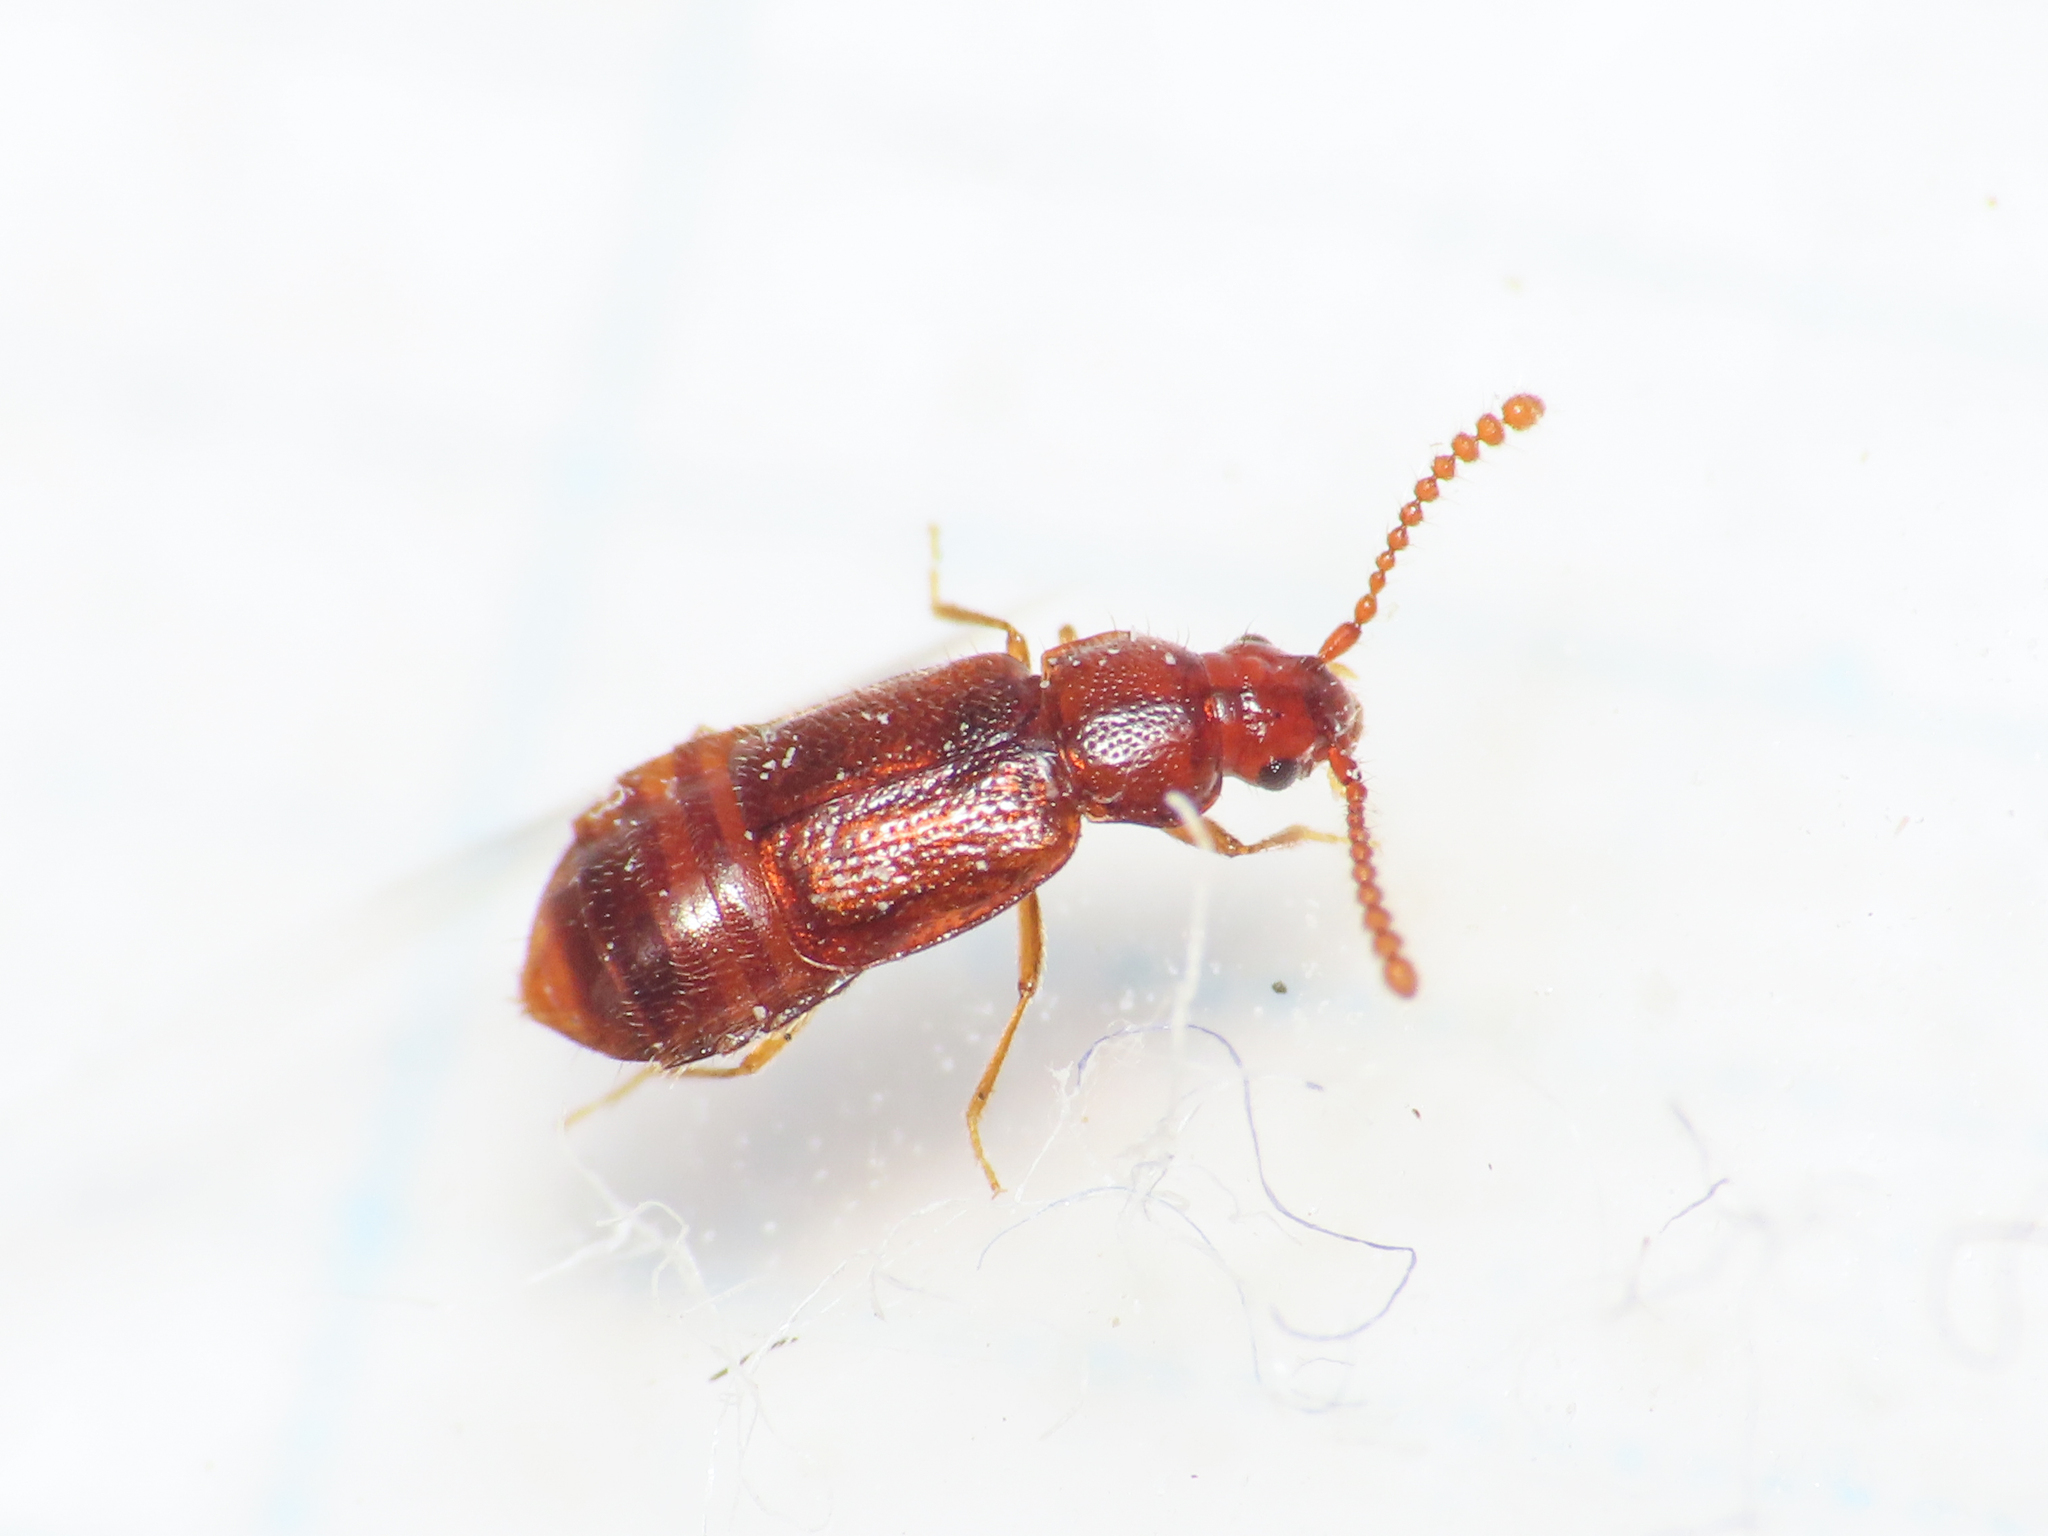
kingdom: Animalia
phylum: Arthropoda
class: Insecta
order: Coleoptera
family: Staphylinidae
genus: Hypopycna
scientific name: Hypopycna rufula
